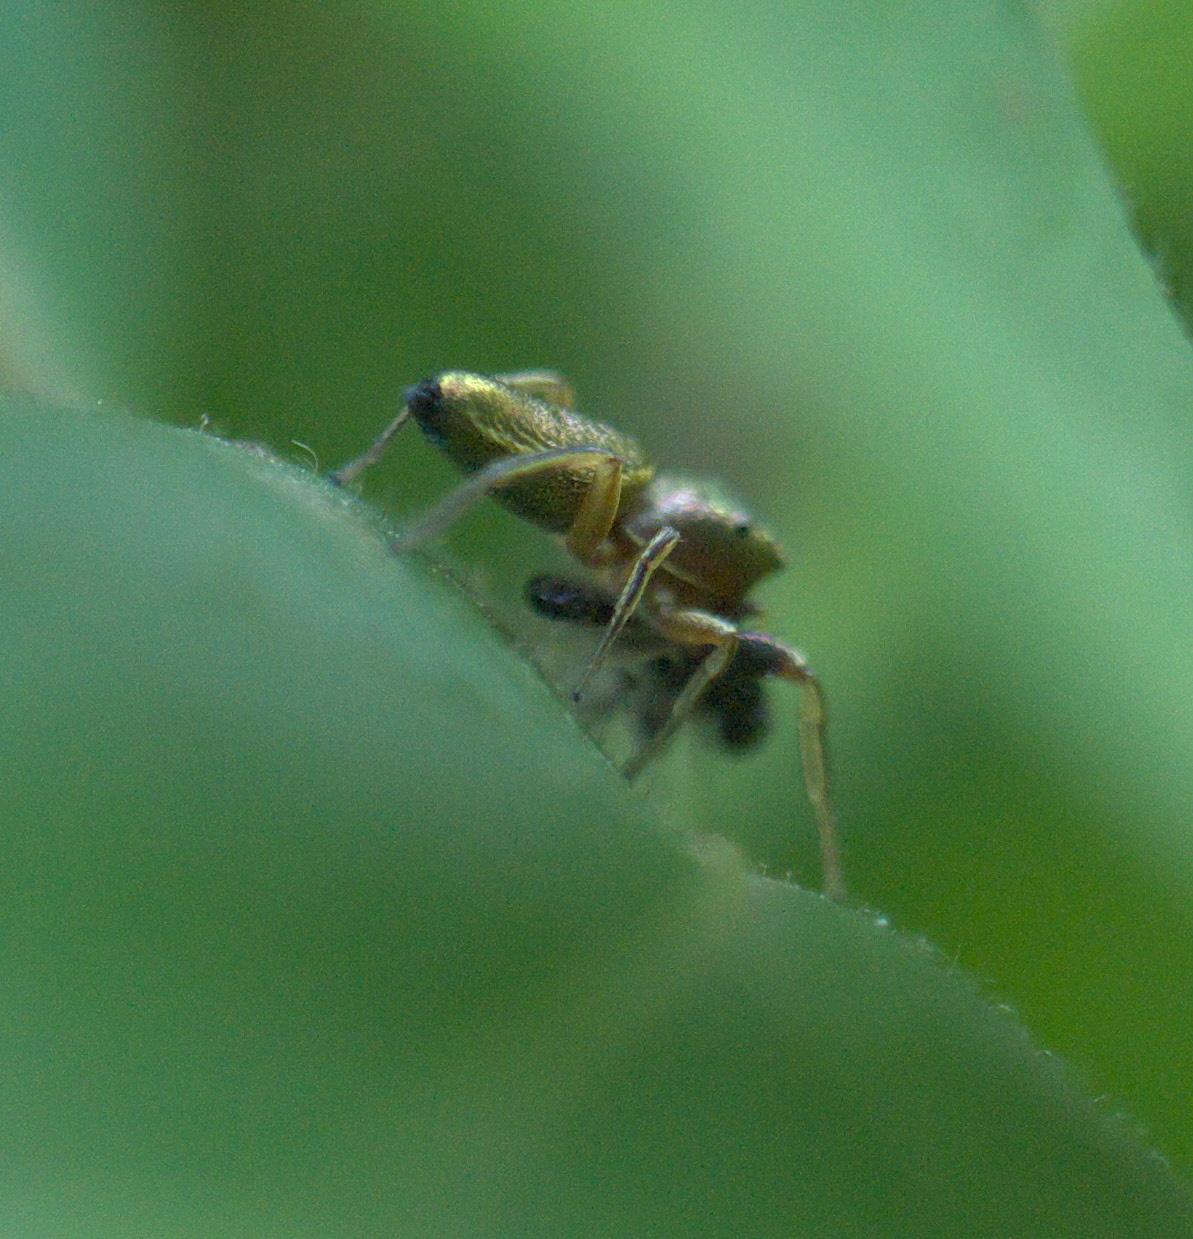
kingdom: Animalia
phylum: Arthropoda
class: Arachnida
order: Araneae
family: Salticidae
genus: Tutelina
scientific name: Tutelina elegans
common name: Thin-spined jumping spider
